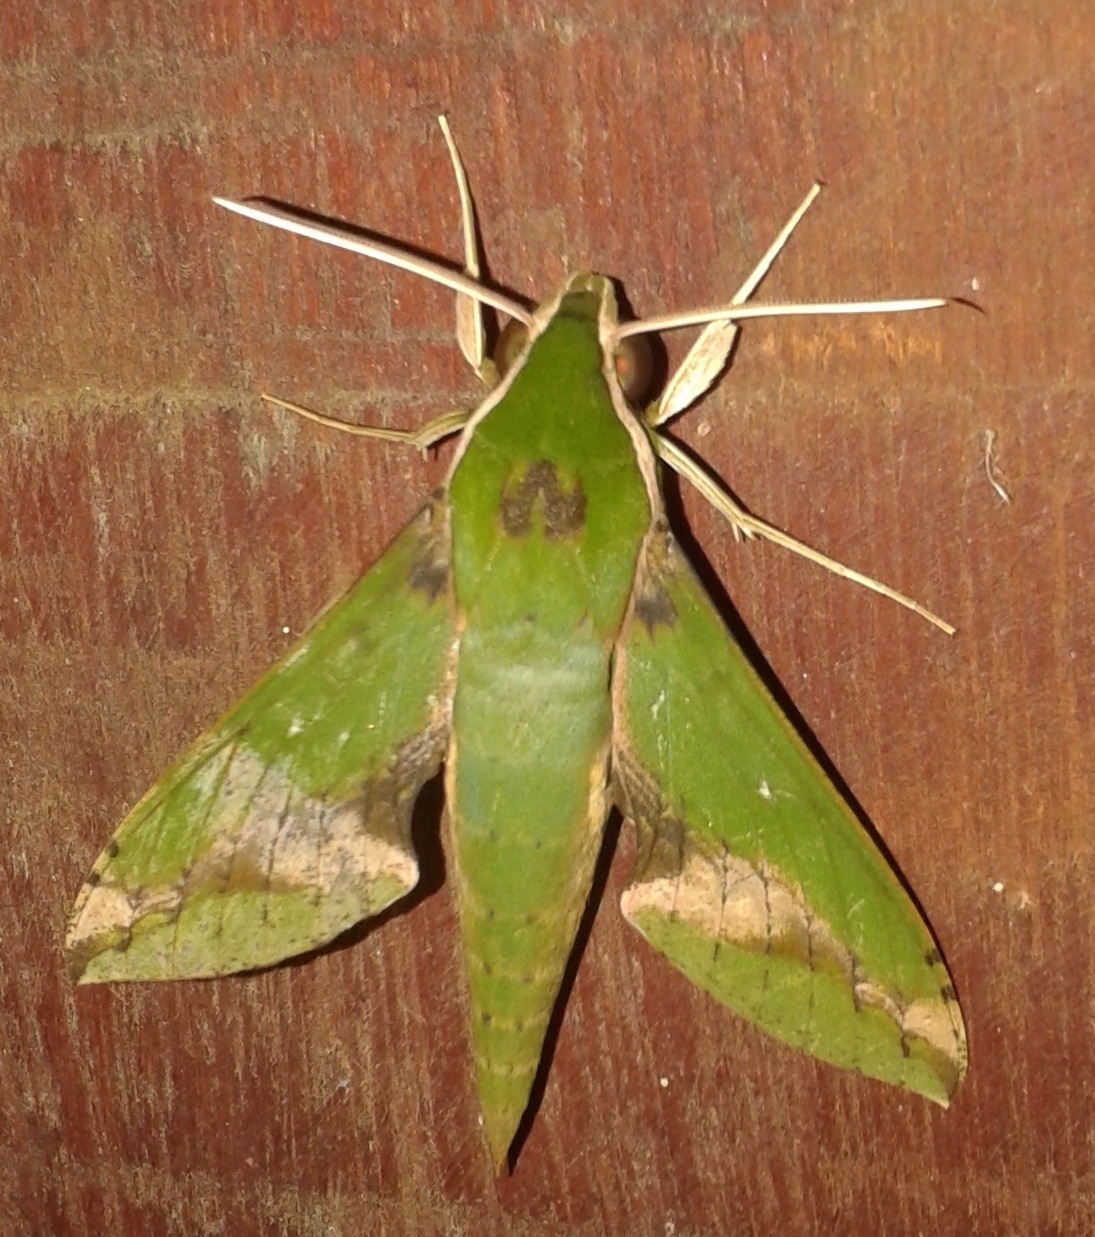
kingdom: Animalia
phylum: Arthropoda
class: Insecta
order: Lepidoptera
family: Sphingidae
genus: Xylophanes
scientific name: Xylophanes chiron
